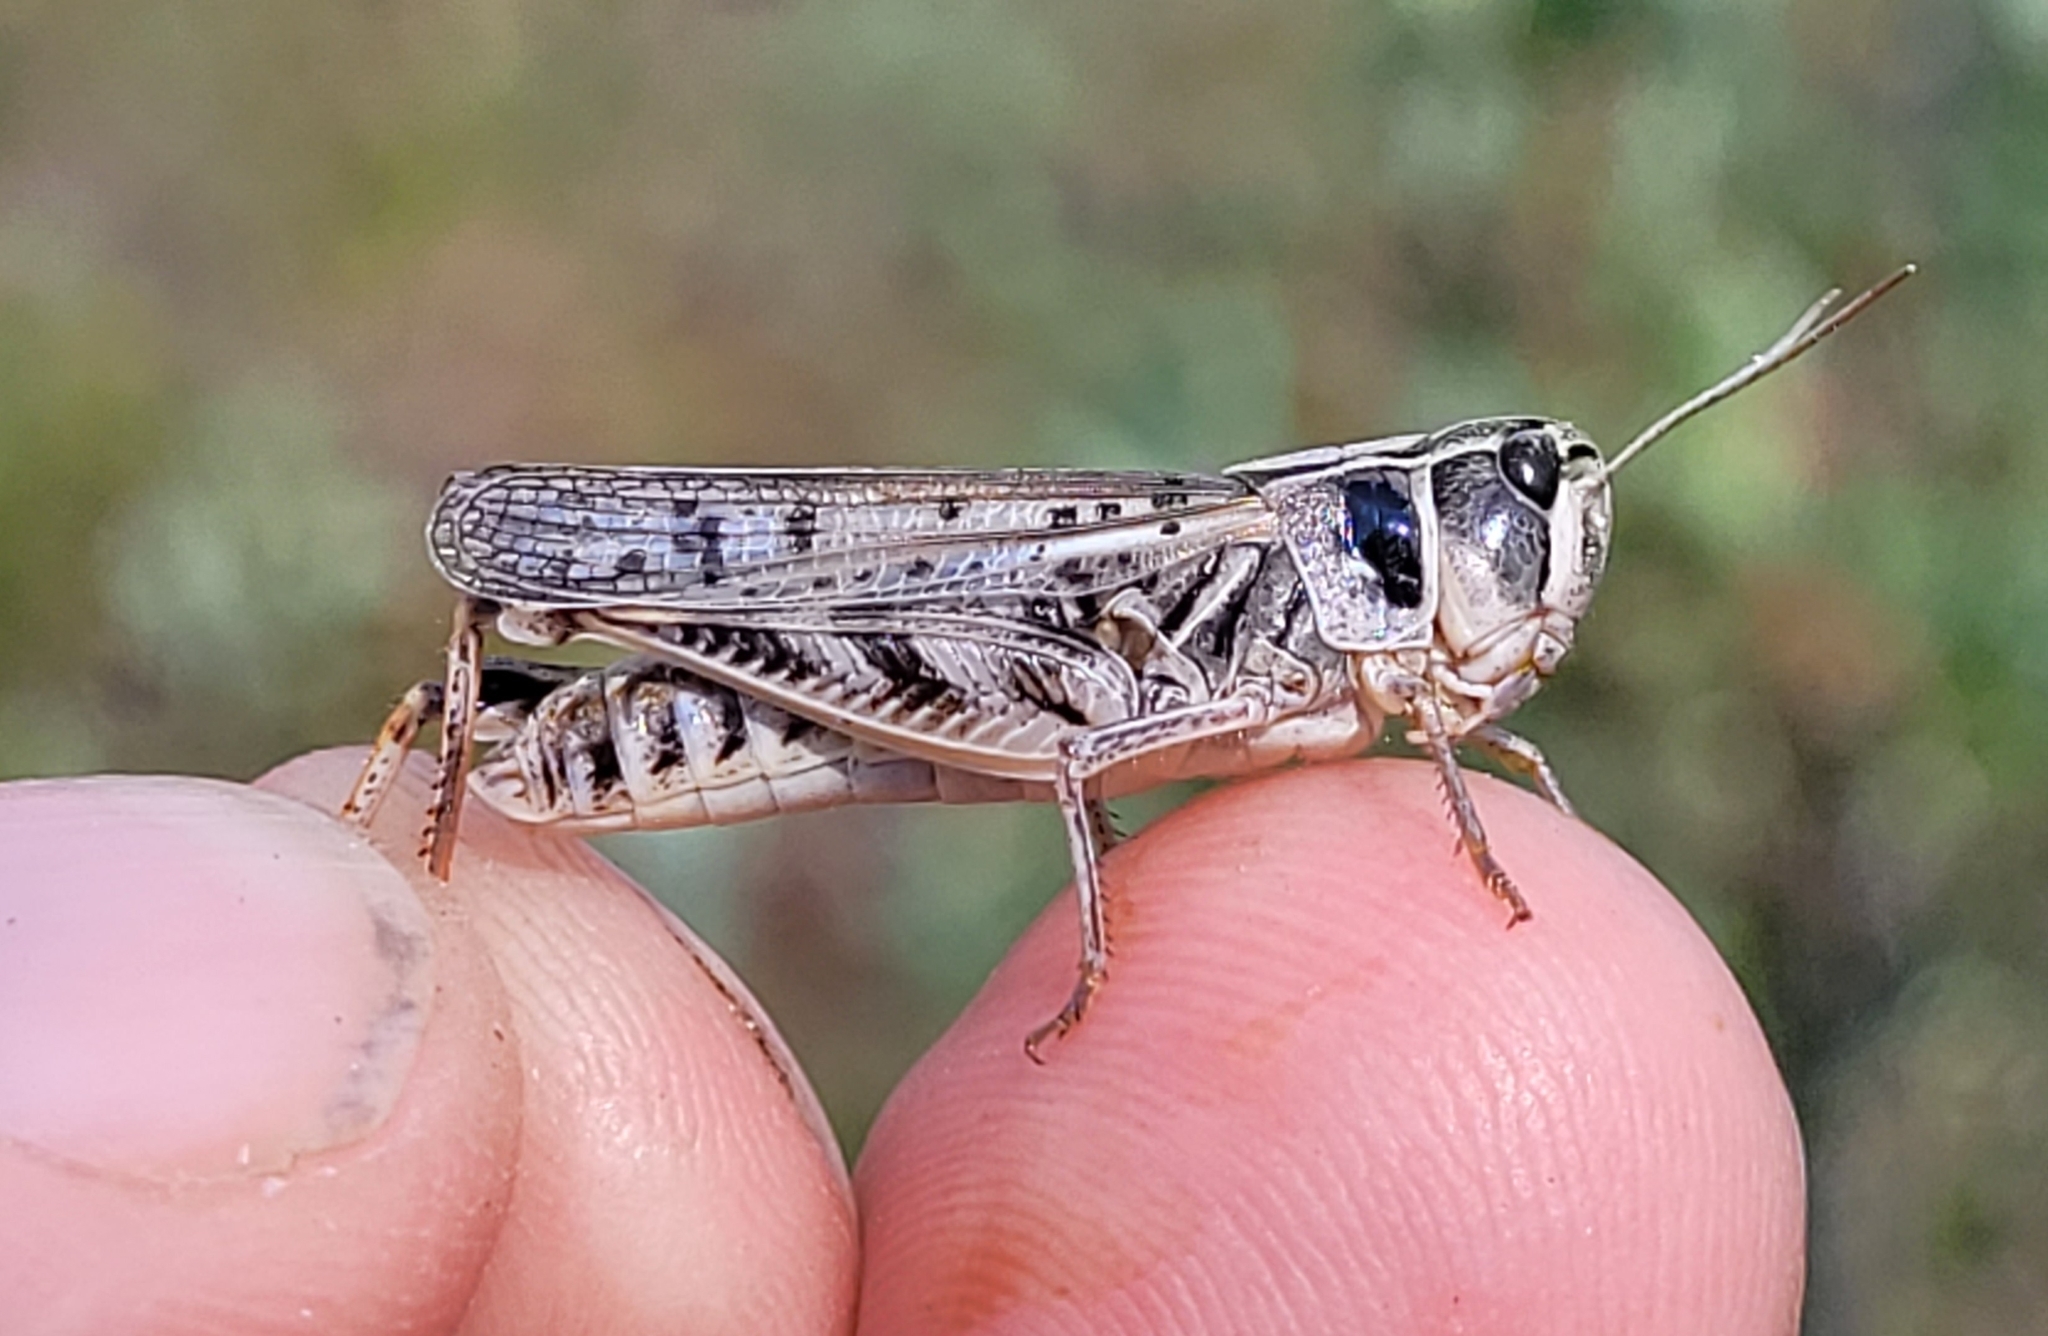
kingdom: Animalia
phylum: Arthropoda
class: Insecta
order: Orthoptera
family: Acrididae
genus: Bruneria
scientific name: Bruneria brunnea
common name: Bruner slantfaced grasshopper
